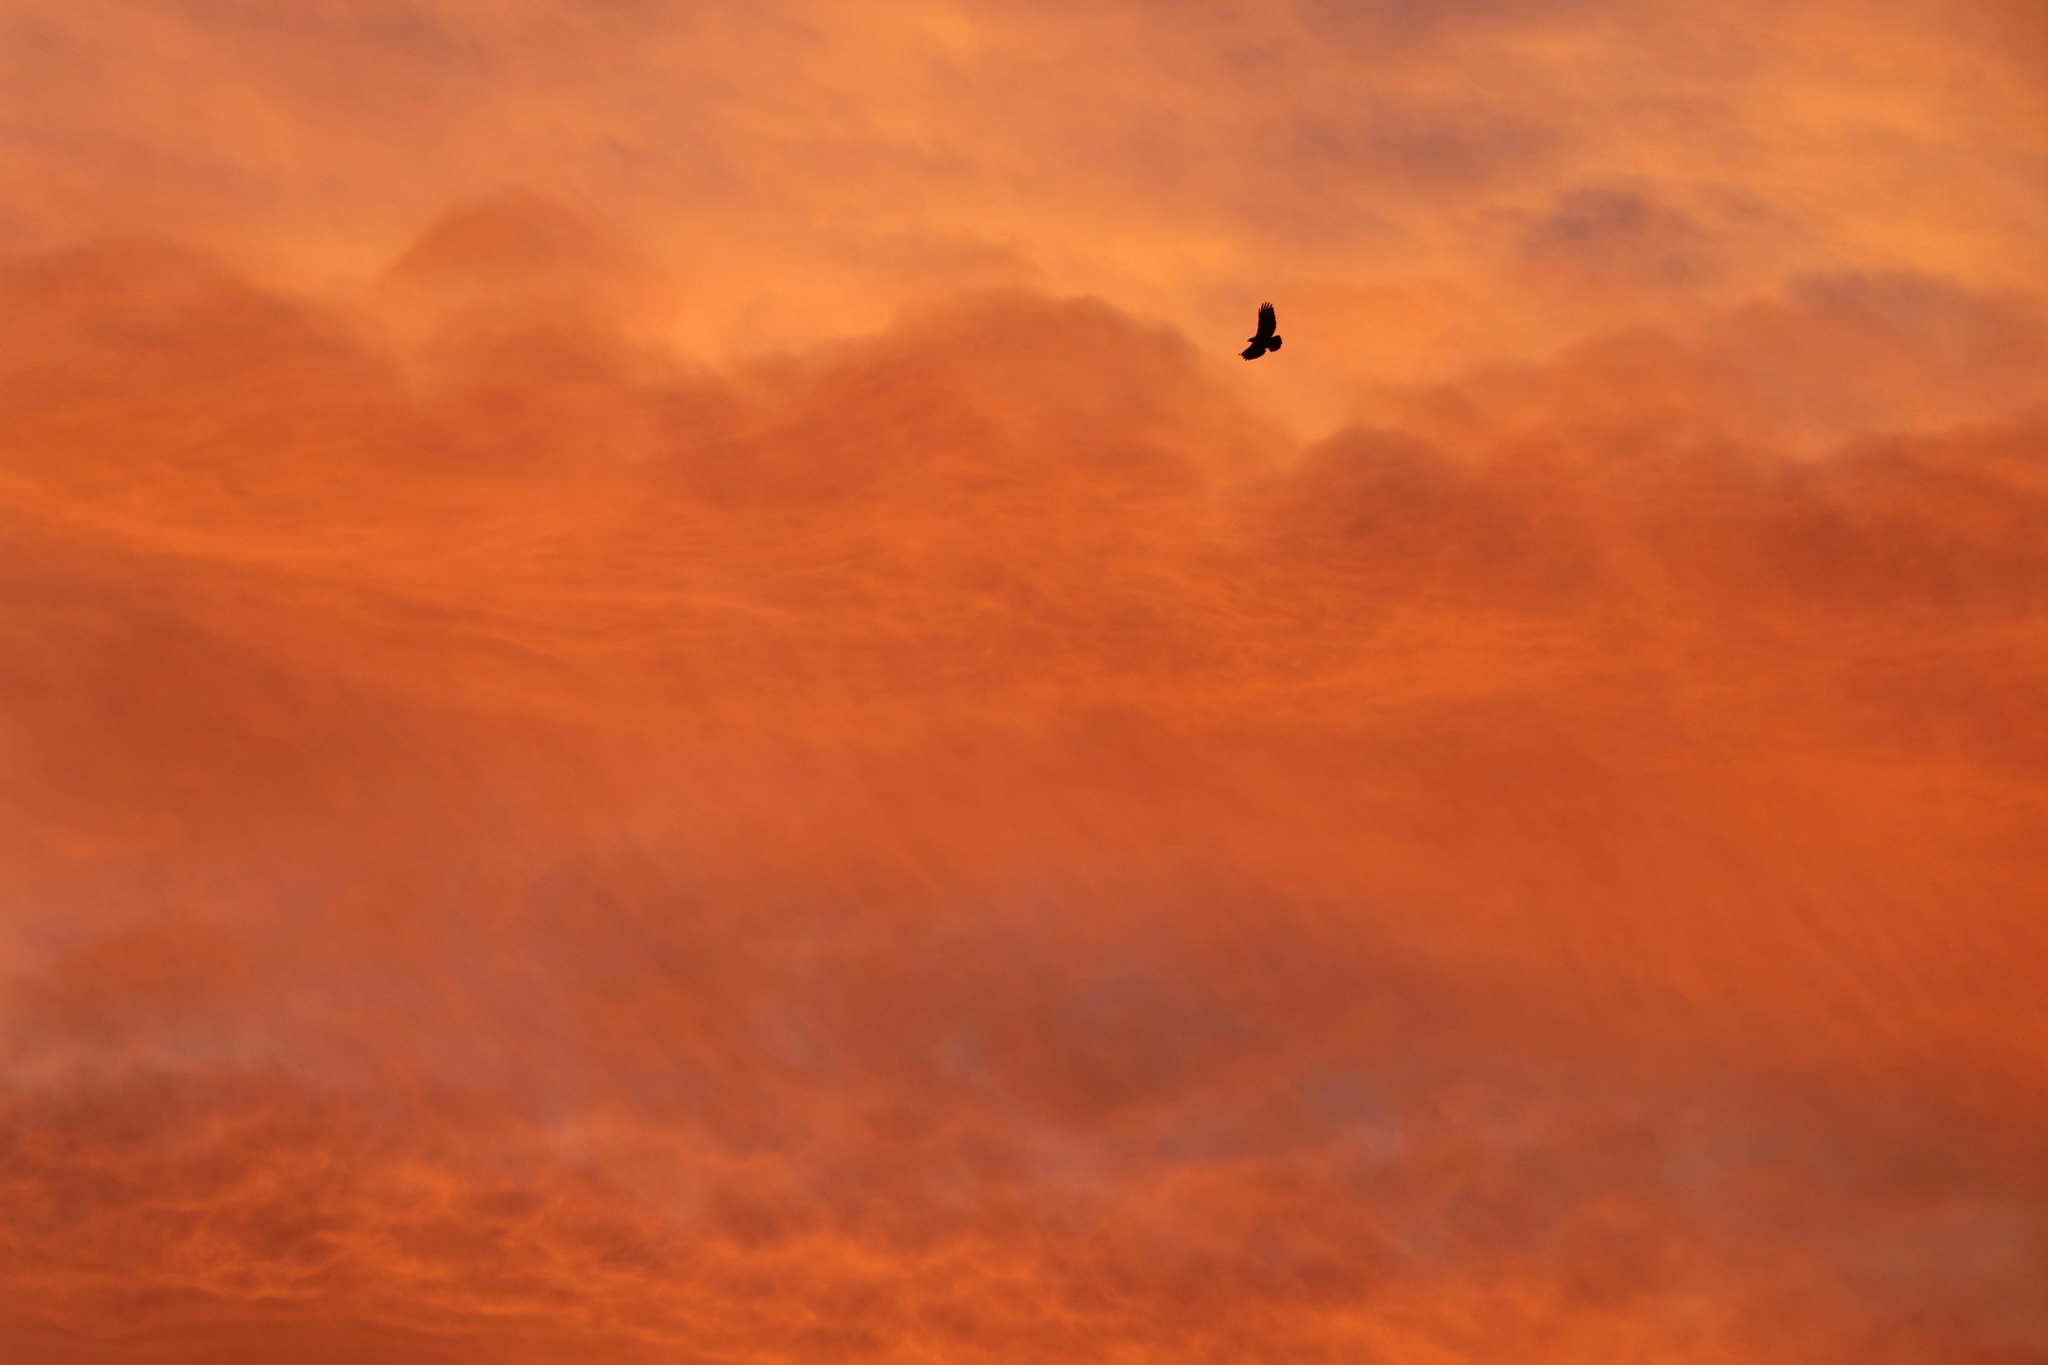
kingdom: Animalia
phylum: Chordata
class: Aves
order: Accipitriformes
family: Accipitridae
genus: Buteo
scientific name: Buteo jamaicensis
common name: Red-tailed hawk
